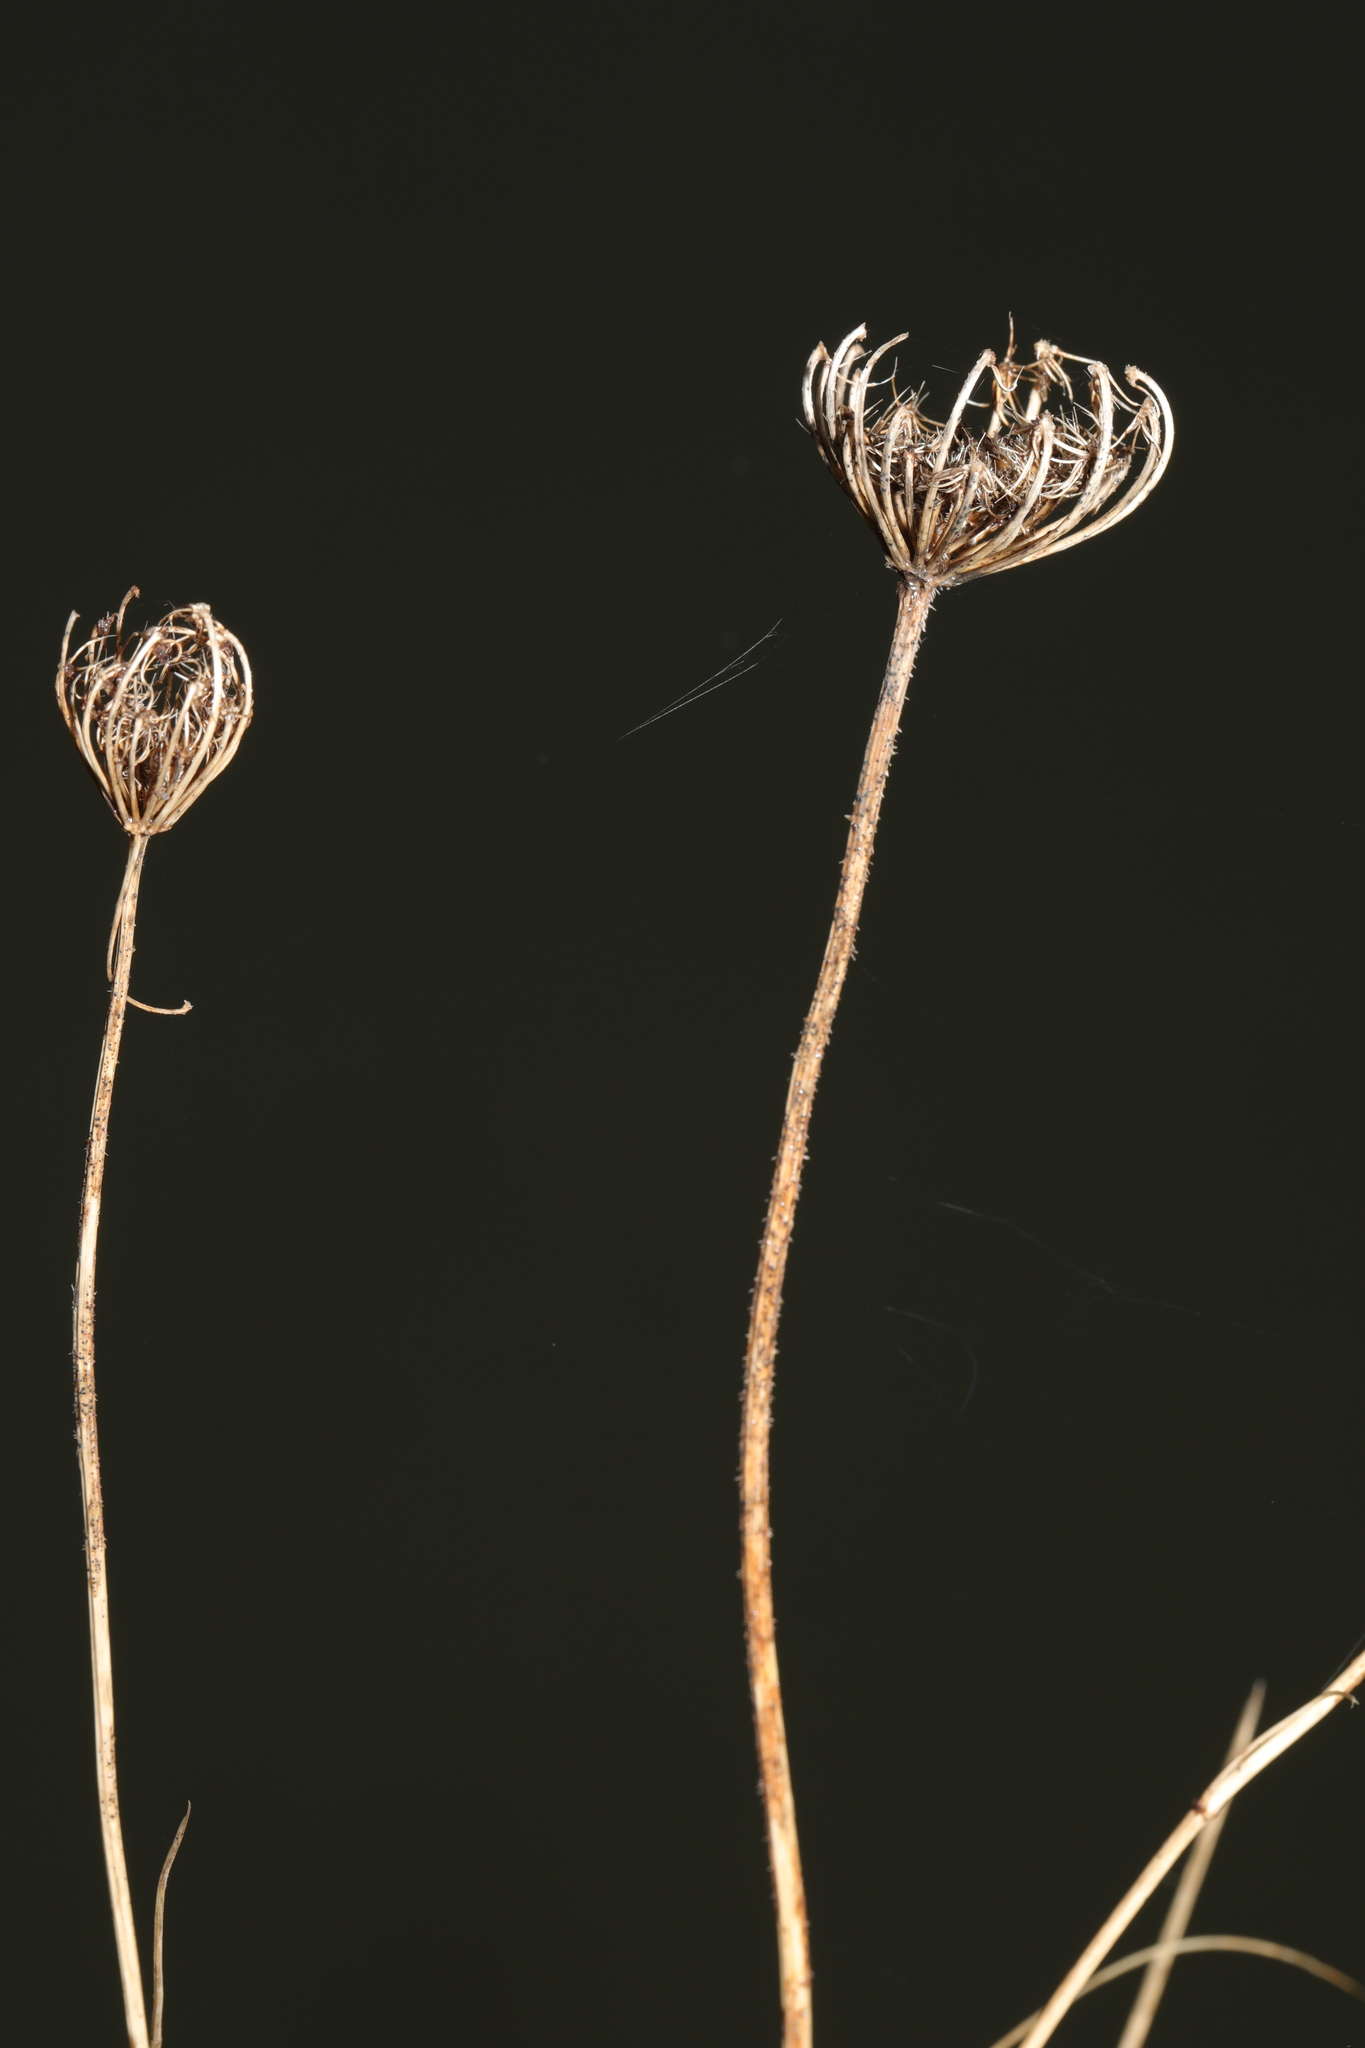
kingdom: Plantae
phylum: Tracheophyta
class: Magnoliopsida
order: Apiales
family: Apiaceae
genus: Daucus
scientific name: Daucus carota
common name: Wild carrot
